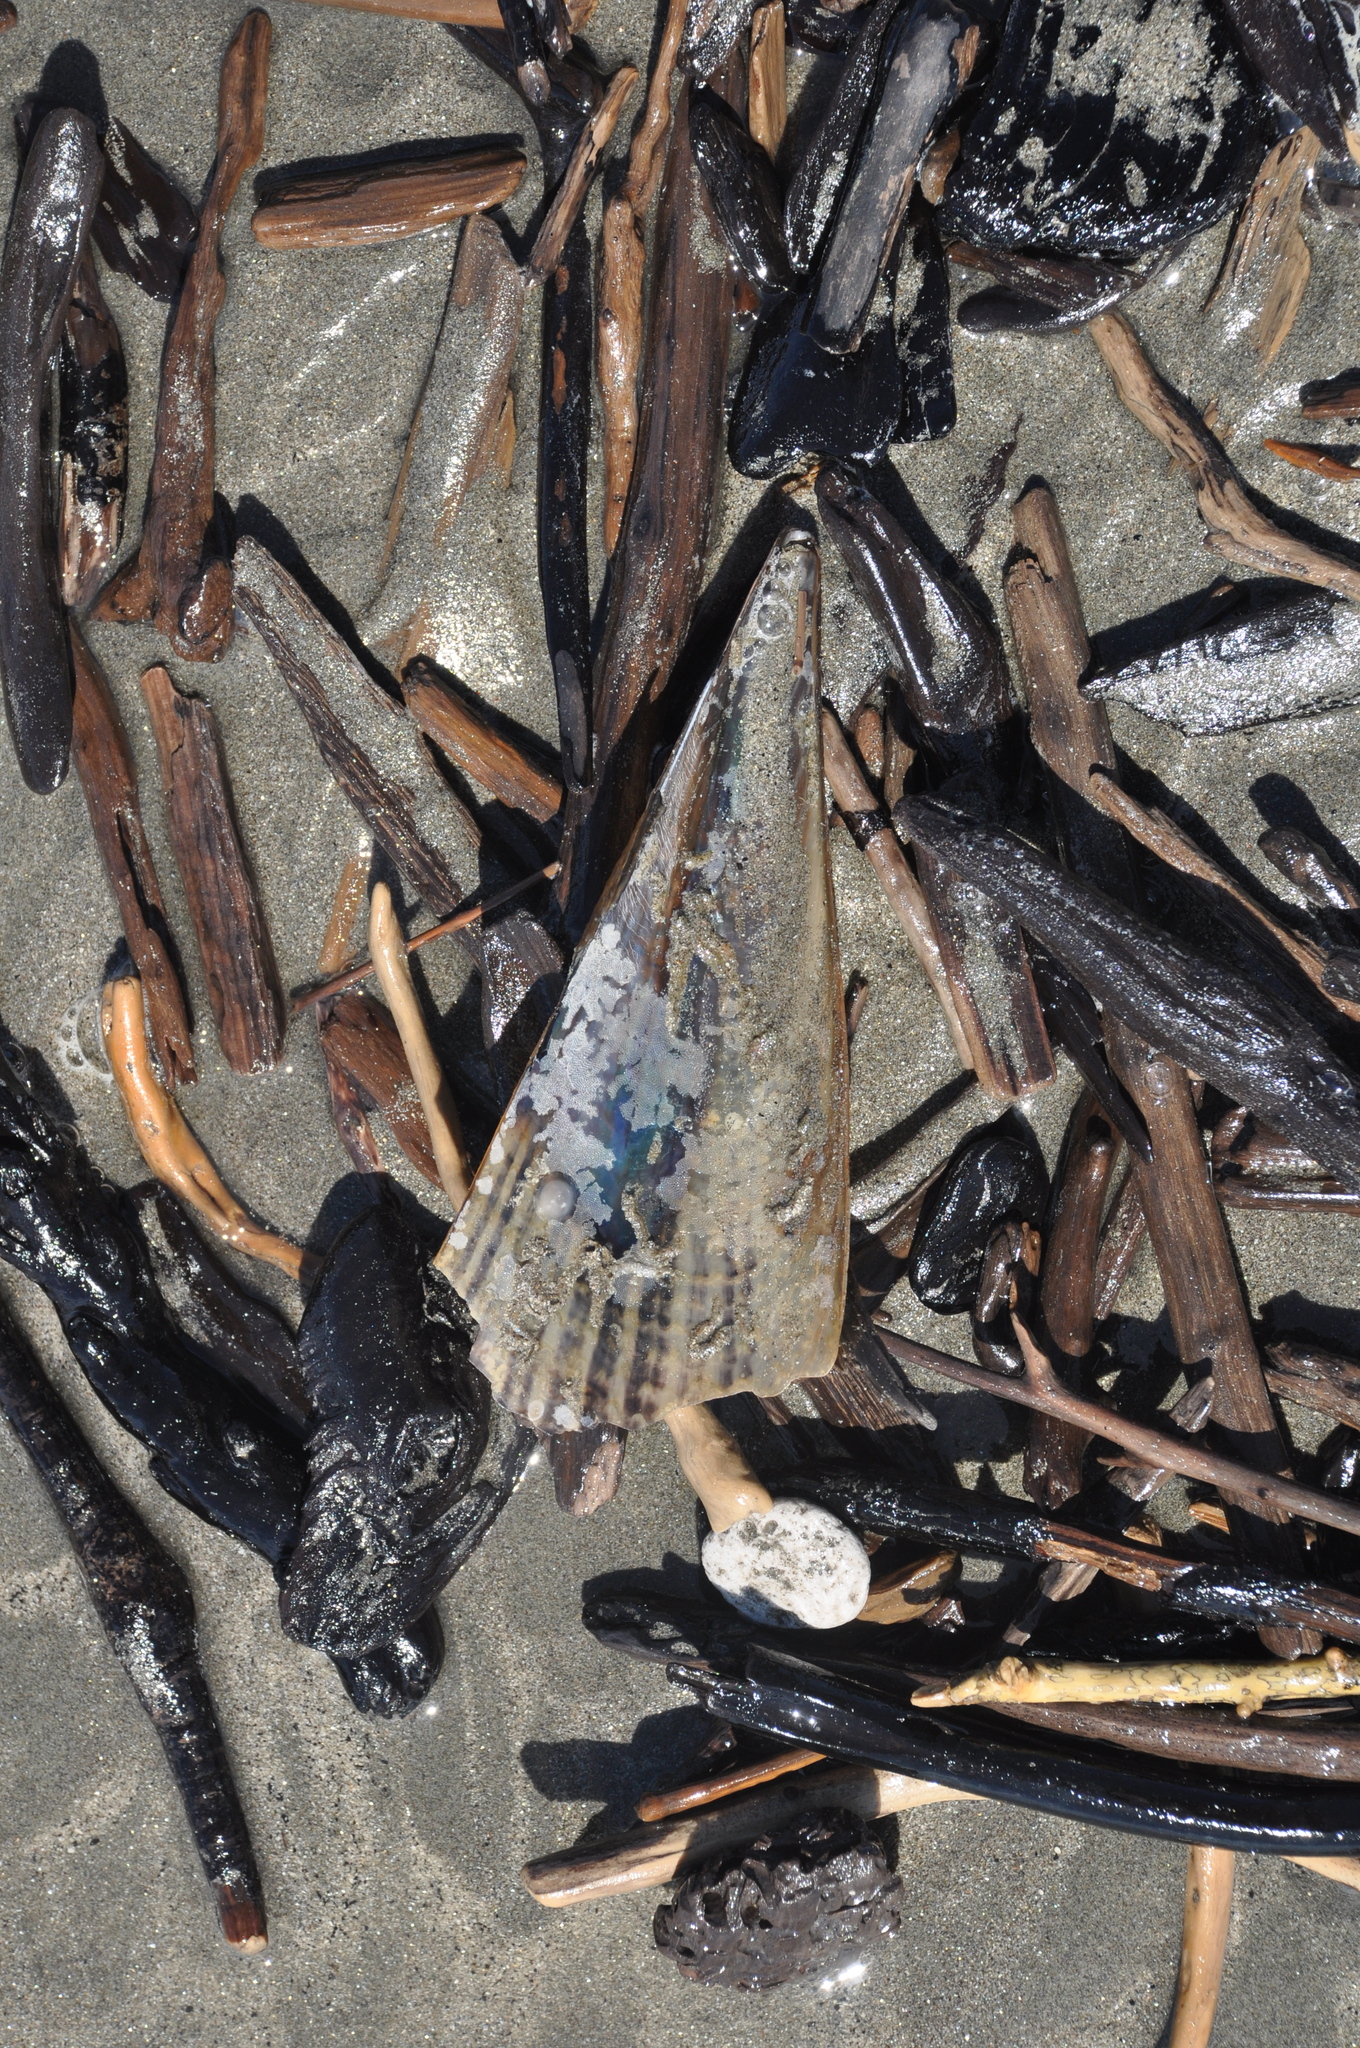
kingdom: Animalia
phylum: Mollusca
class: Bivalvia
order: Ostreida
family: Pinnidae
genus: Atrina
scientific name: Atrina zelandica
